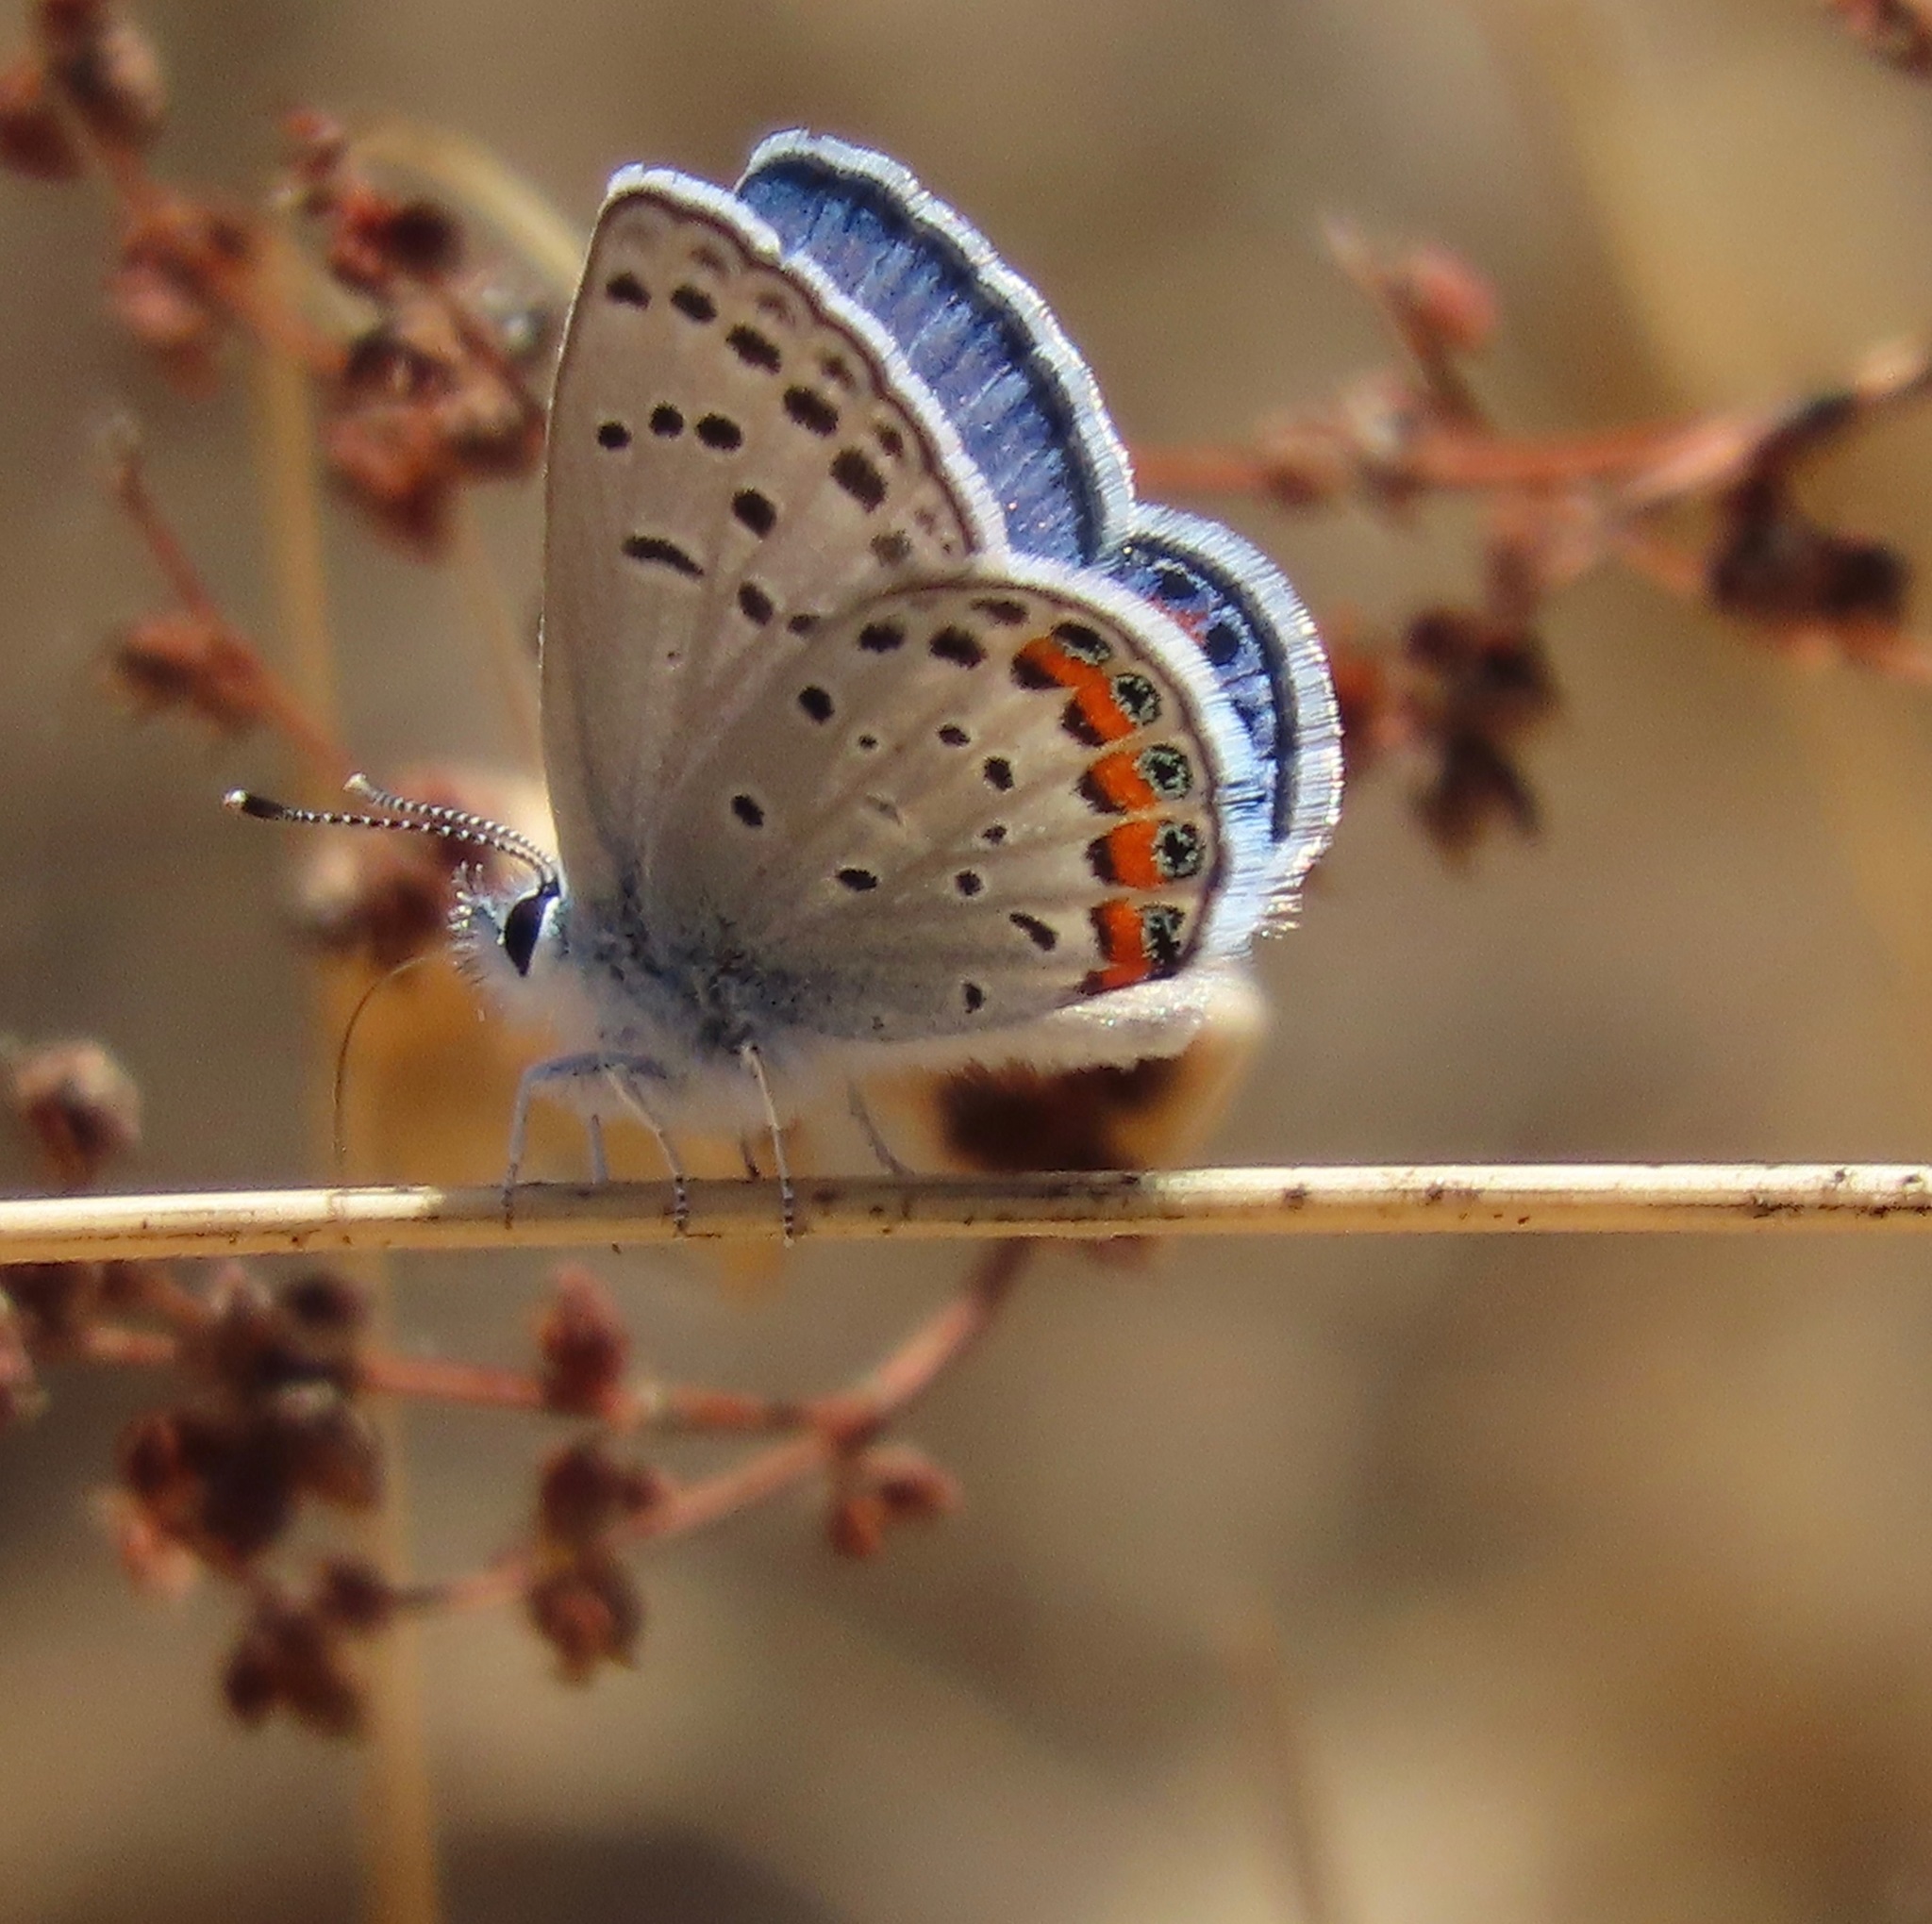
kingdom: Animalia
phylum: Arthropoda
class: Insecta
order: Lepidoptera
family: Lycaenidae
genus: Icaricia
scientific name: Icaricia acmon
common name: Acmon blue
